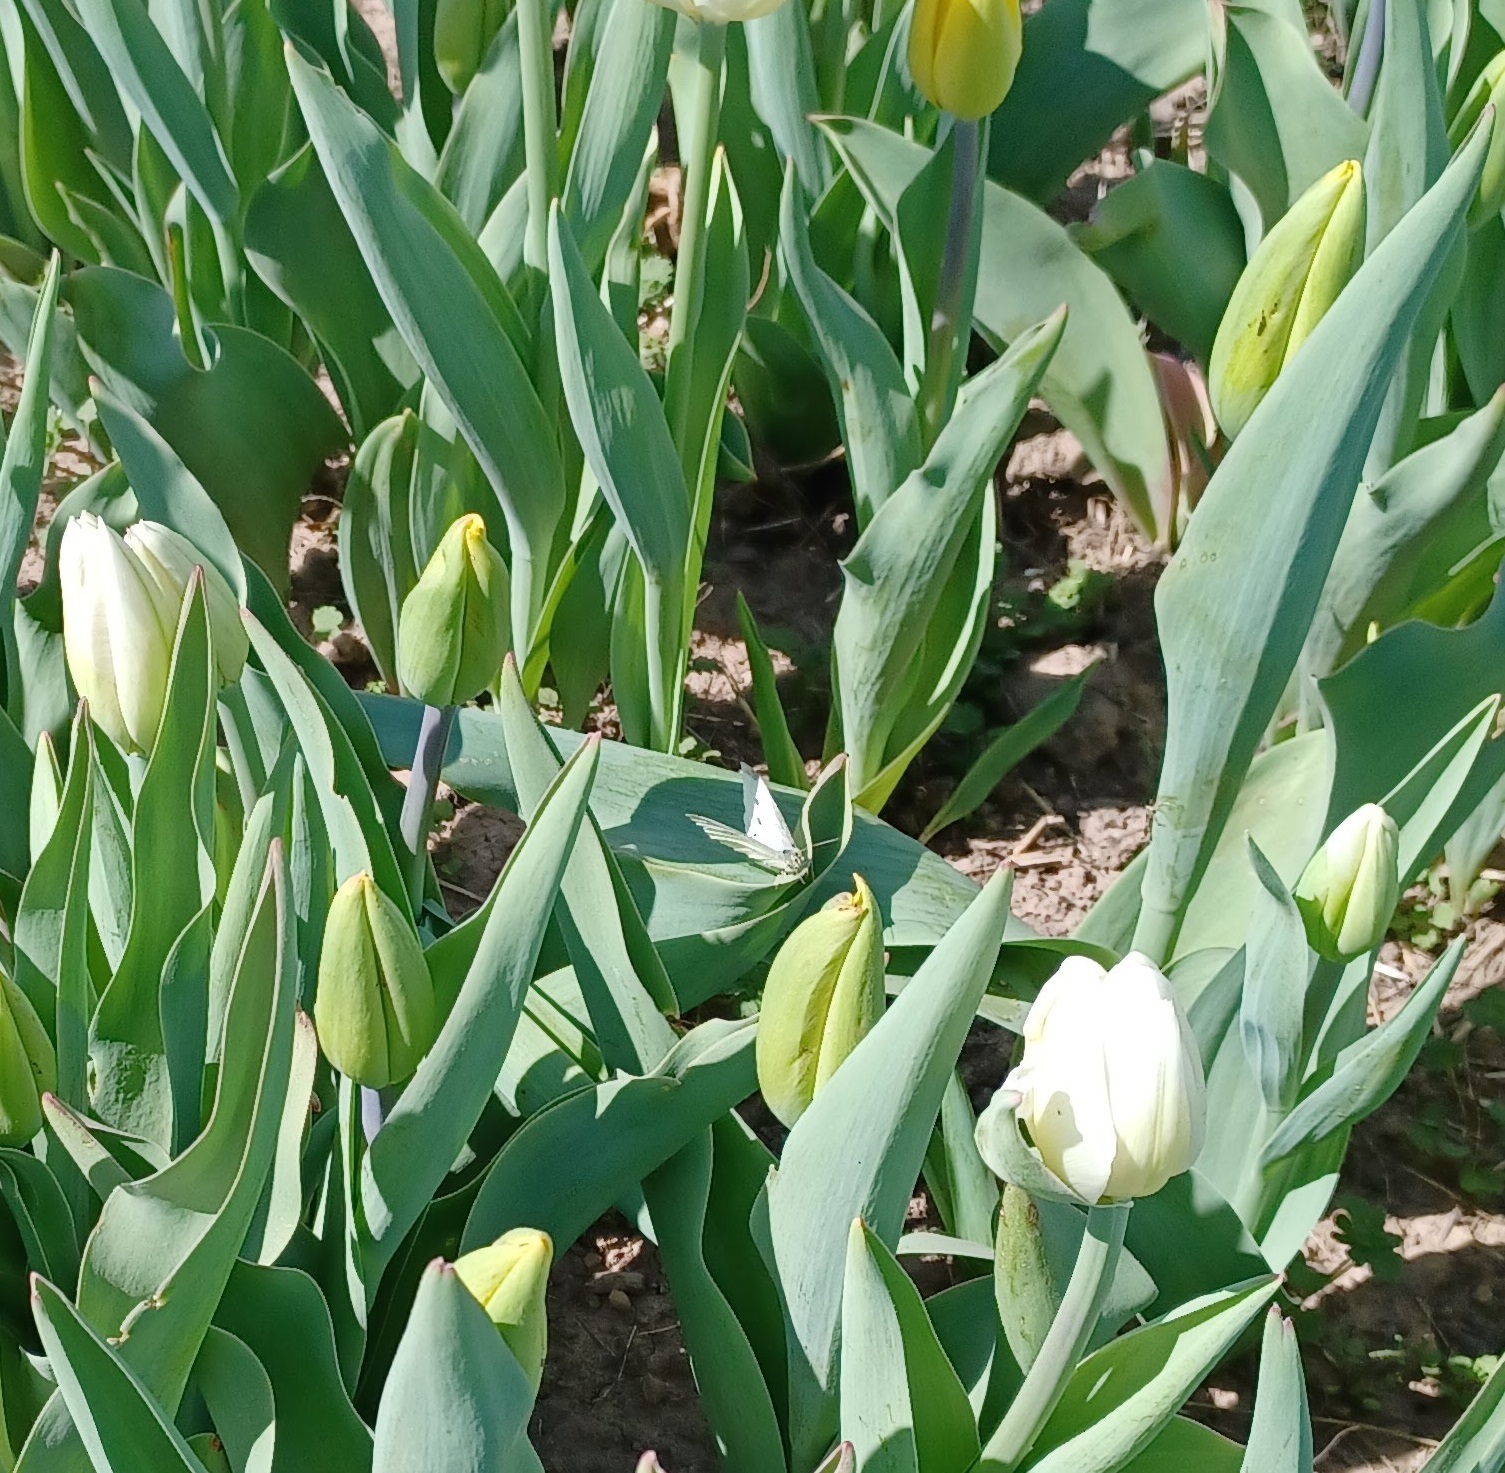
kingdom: Animalia
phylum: Arthropoda
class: Insecta
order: Lepidoptera
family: Pieridae
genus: Pieris
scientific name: Pieris rapae
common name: Small white
